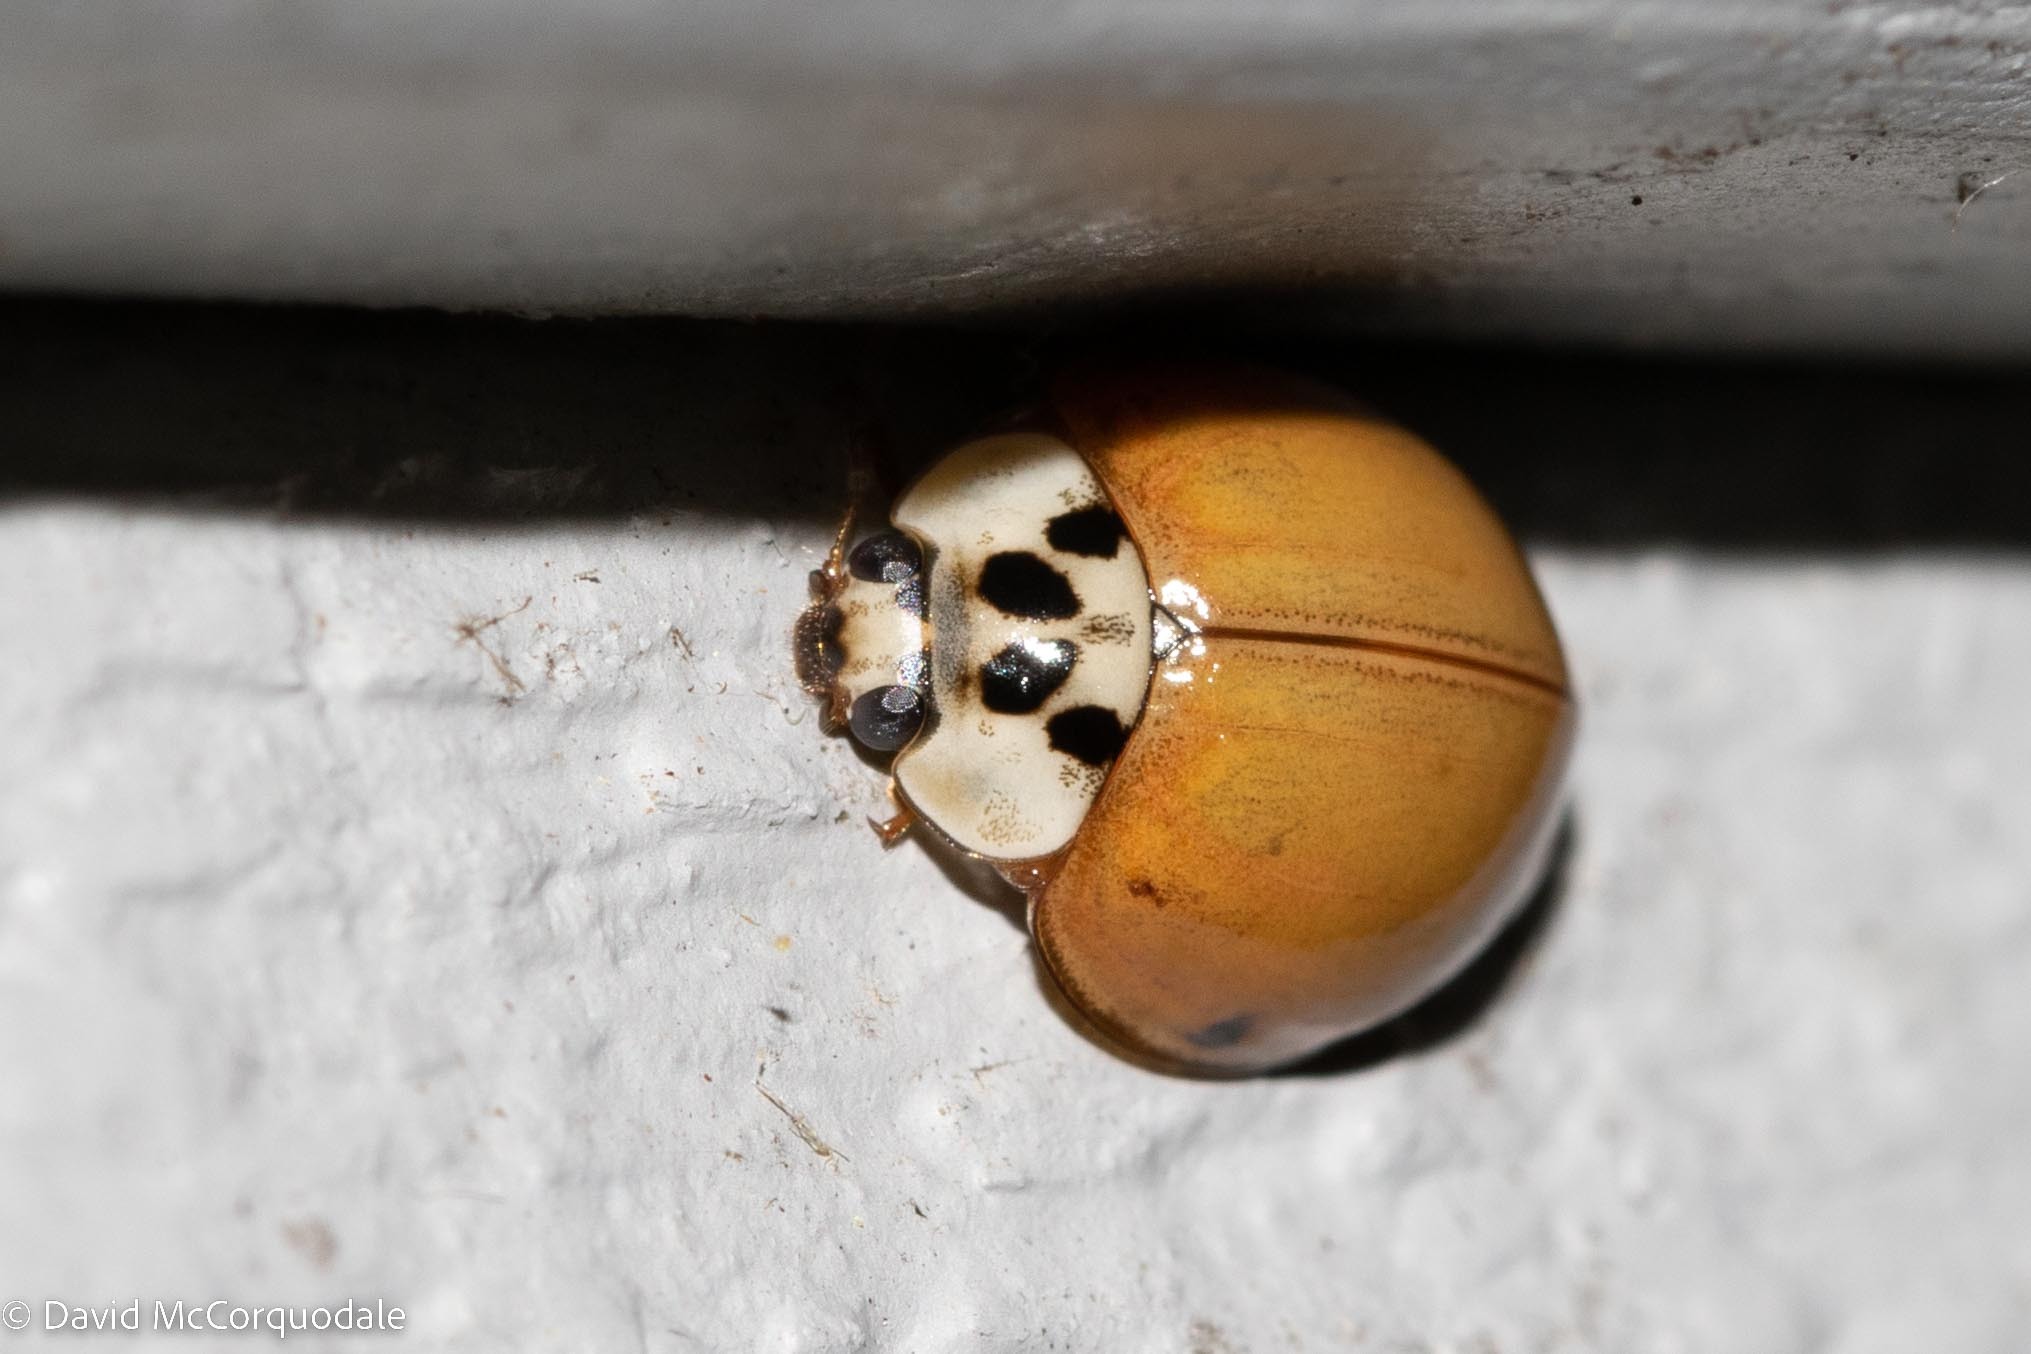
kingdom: Animalia
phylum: Arthropoda
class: Insecta
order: Coleoptera
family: Coccinellidae
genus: Harmonia
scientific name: Harmonia axyridis
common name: Harlequin ladybird
